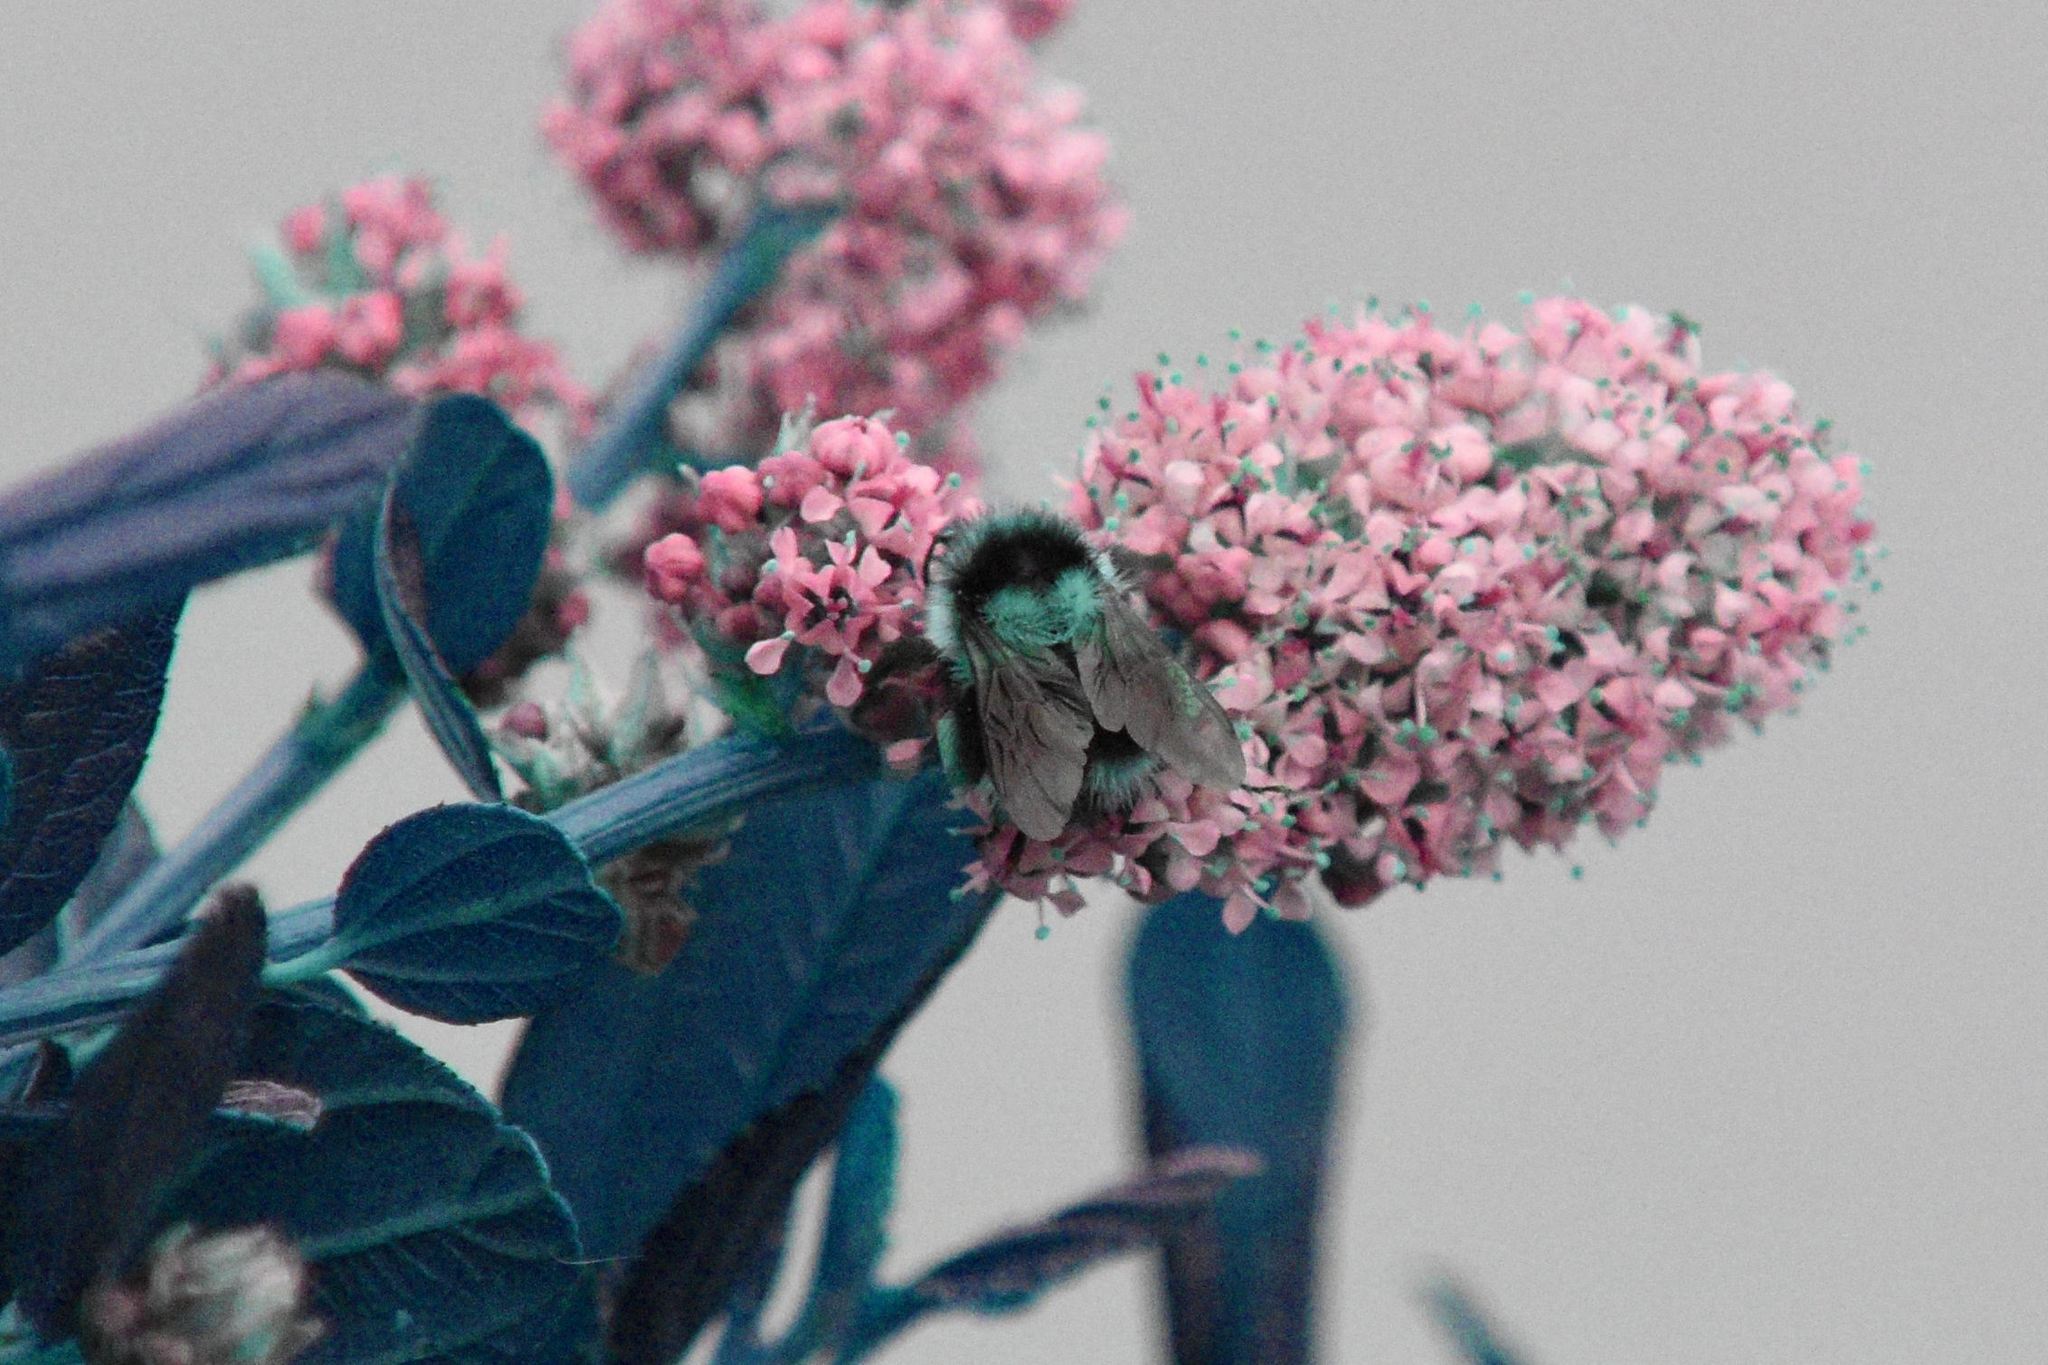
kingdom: Animalia
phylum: Arthropoda
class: Insecta
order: Hymenoptera
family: Apidae
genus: Bombus
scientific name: Bombus melanopygus
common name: Black tail bumble bee
